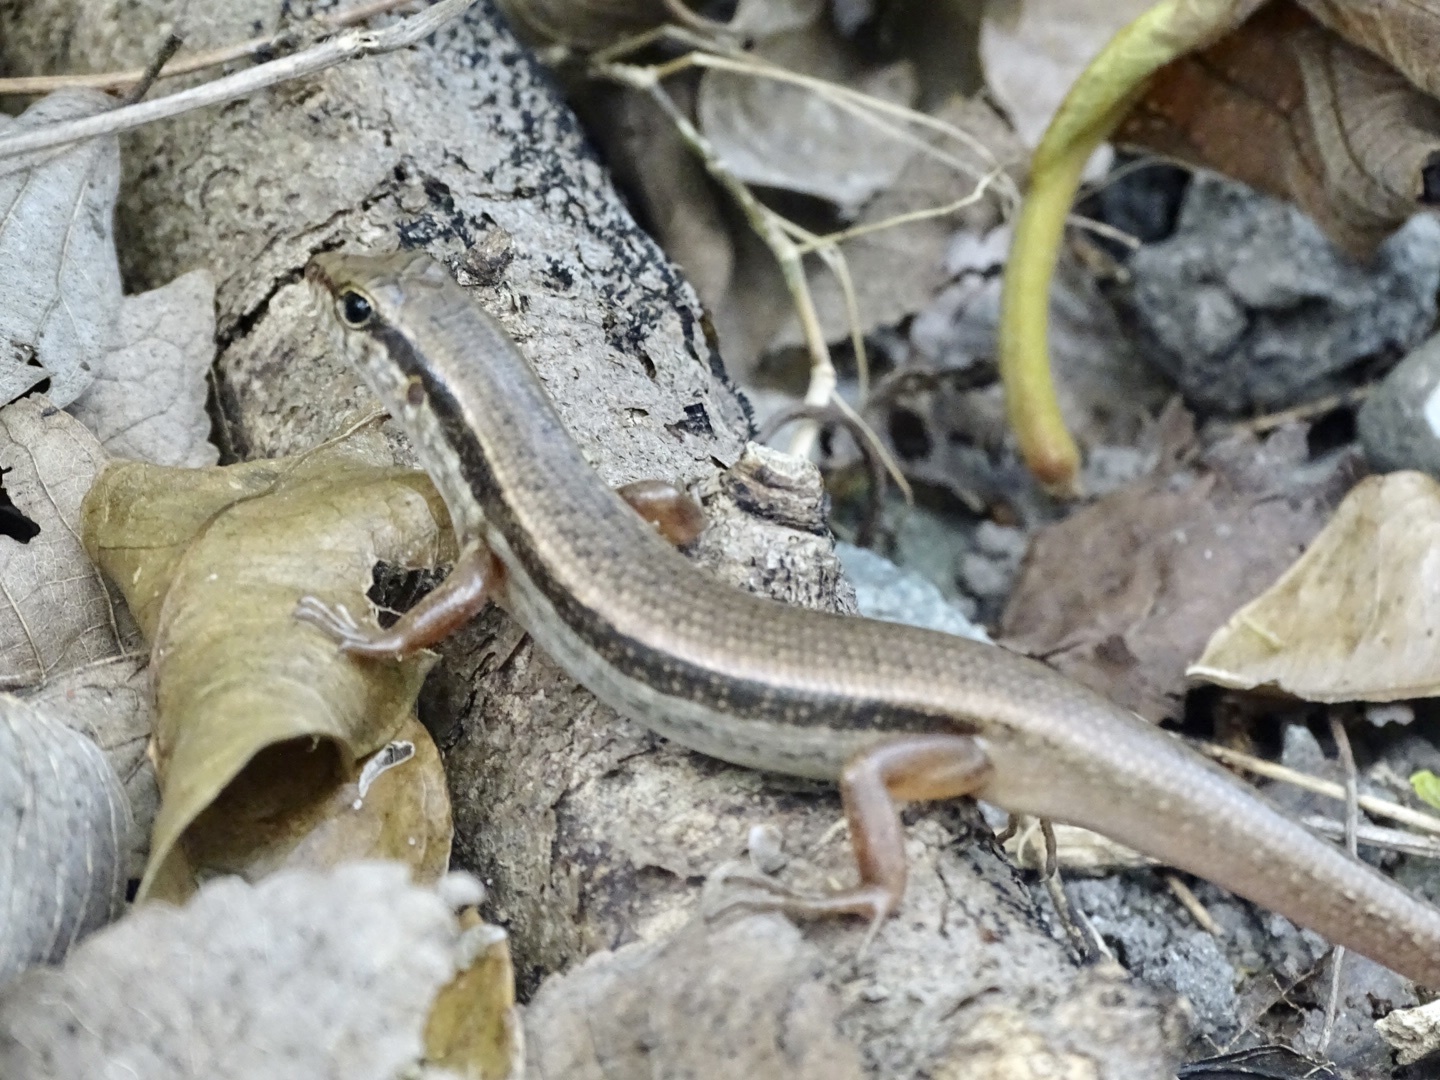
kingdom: Animalia
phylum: Chordata
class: Squamata
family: Scincidae
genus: Sphenomorphus
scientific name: Sphenomorphus indicus
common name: Himalayan forest skink
